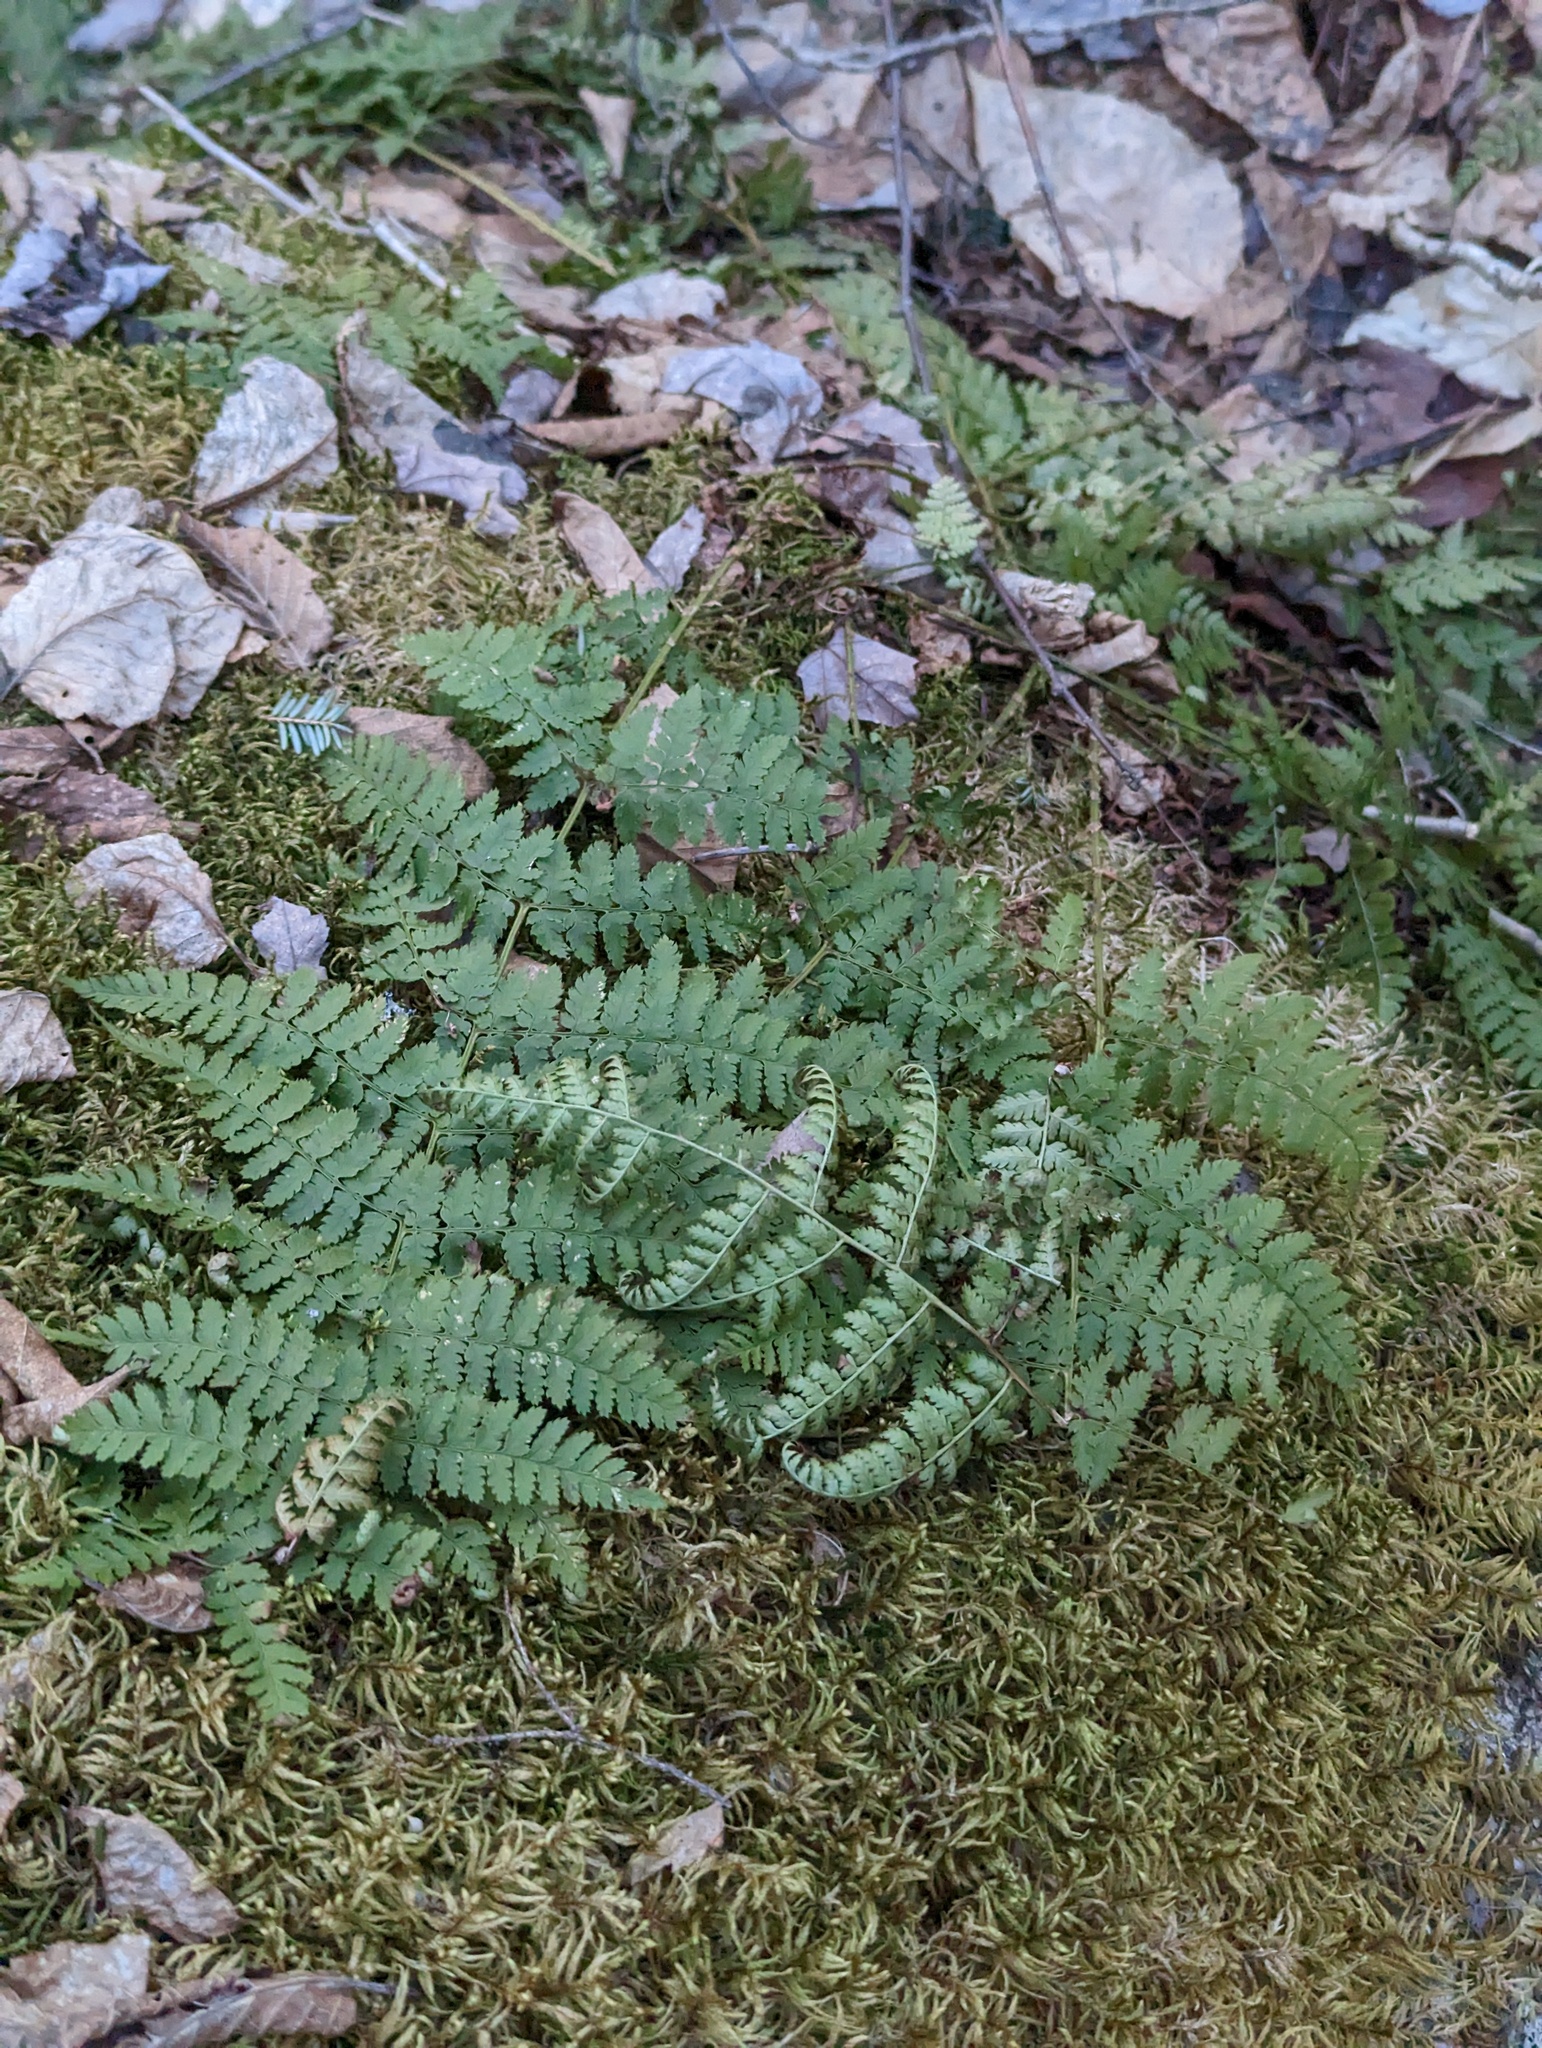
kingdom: Plantae
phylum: Tracheophyta
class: Polypodiopsida
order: Polypodiales
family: Dryopteridaceae
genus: Dryopteris
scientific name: Dryopteris intermedia
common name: Evergreen wood fern
